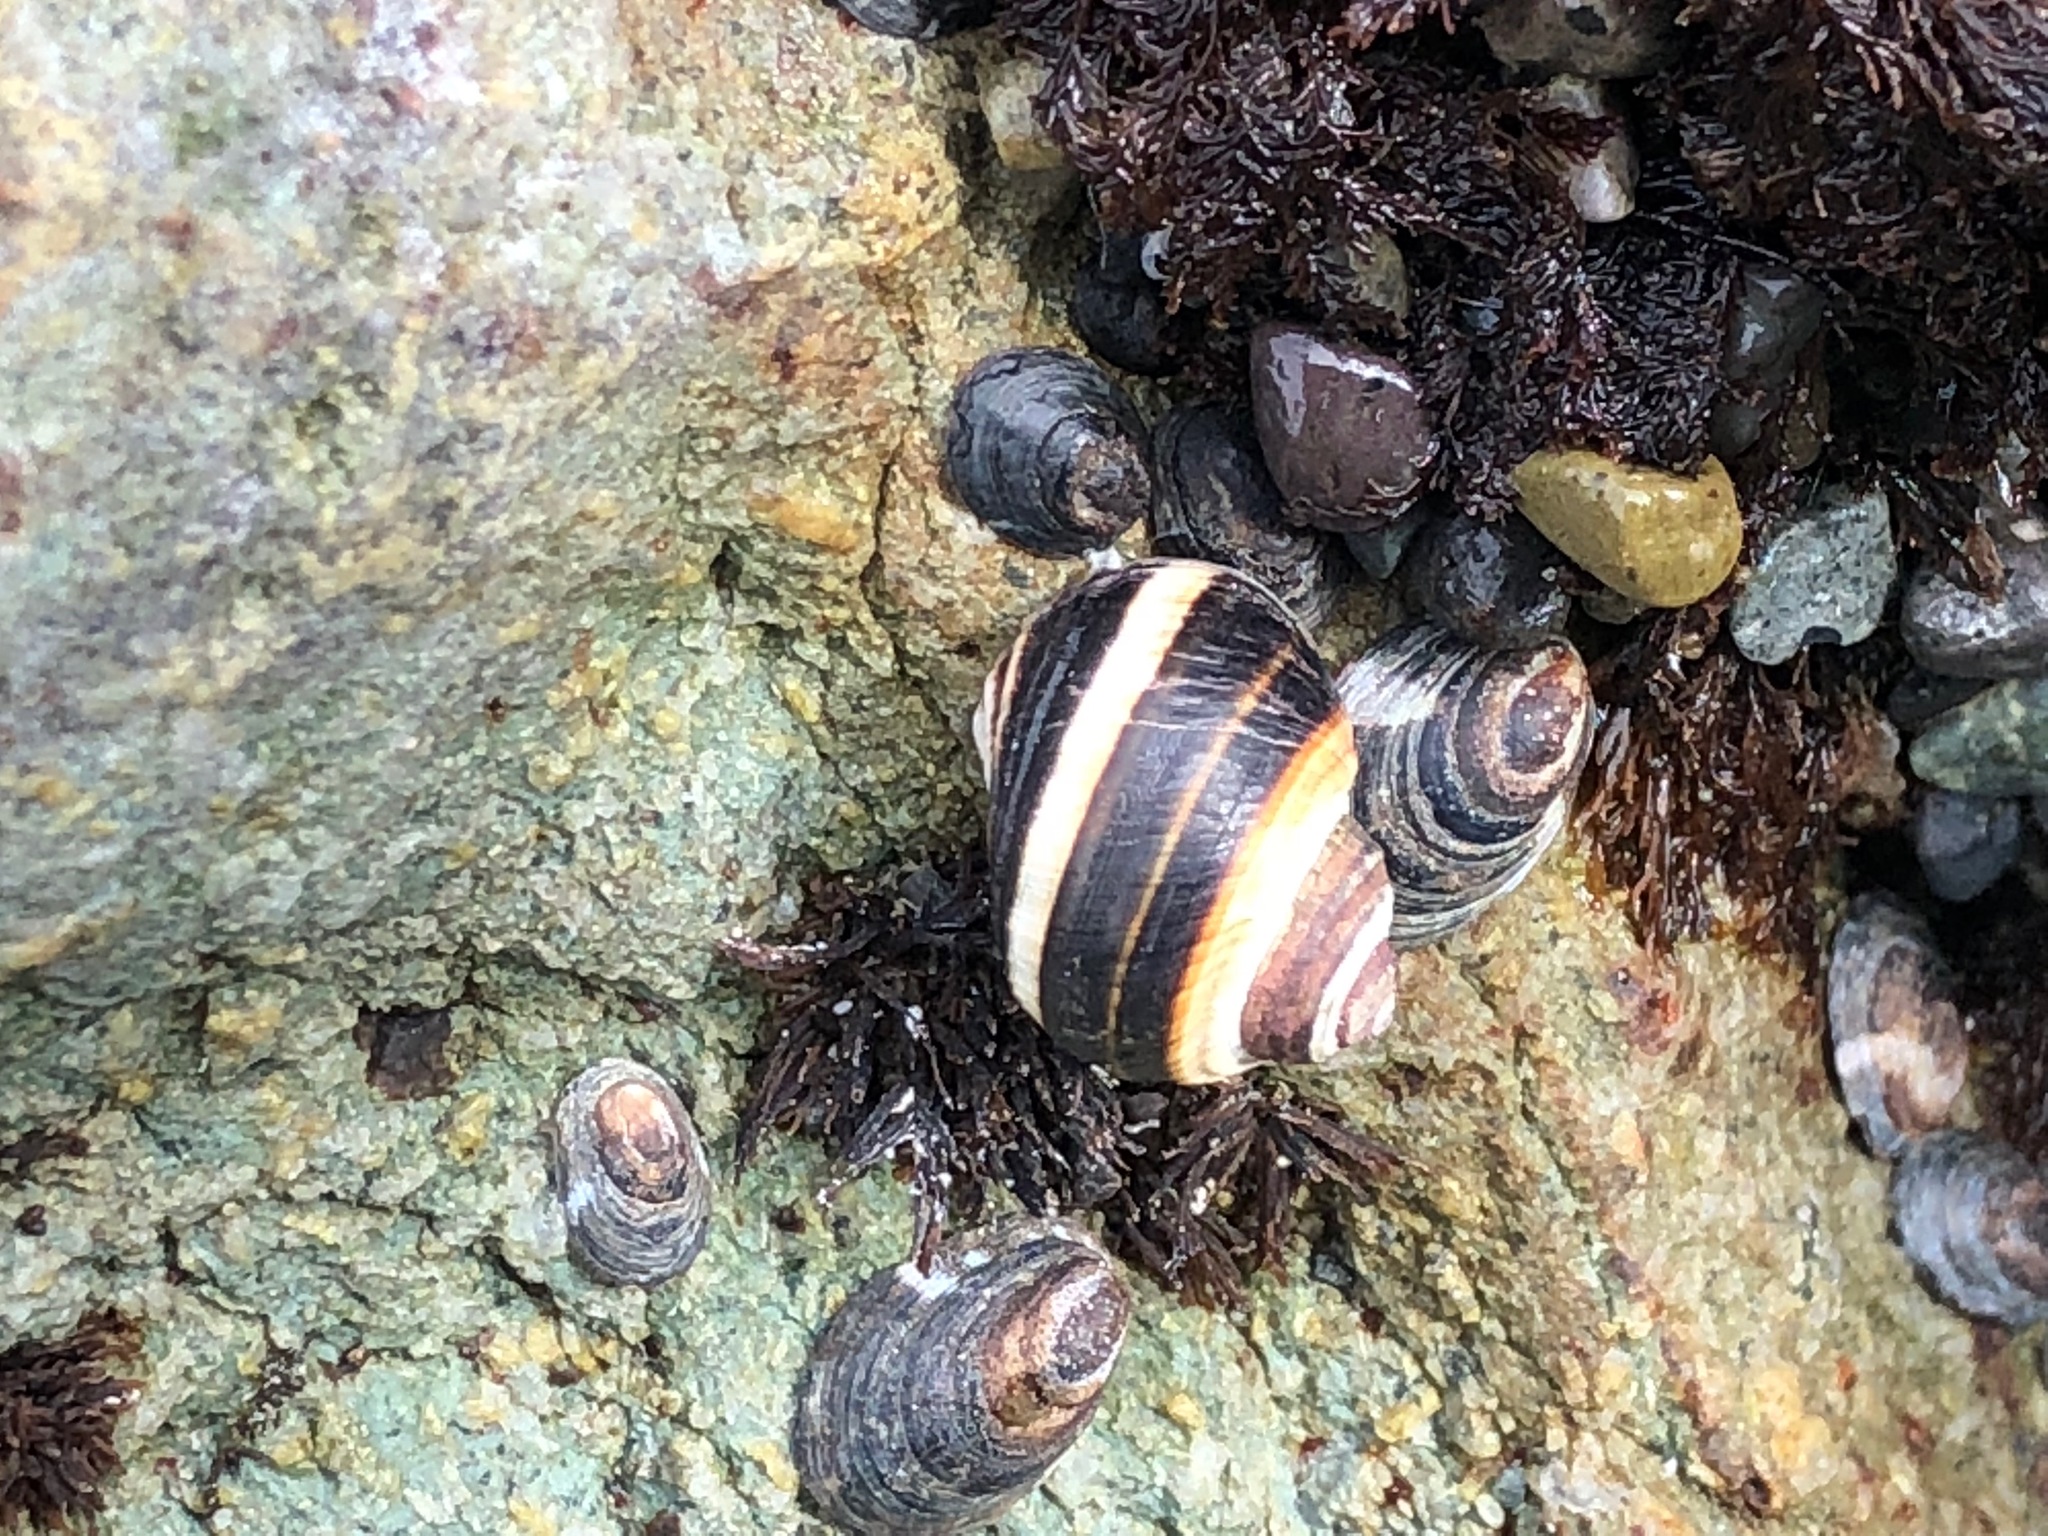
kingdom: Animalia
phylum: Mollusca
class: Gastropoda
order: Littorinimorpha
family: Littorinidae
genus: Littorina
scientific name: Littorina sitkana
